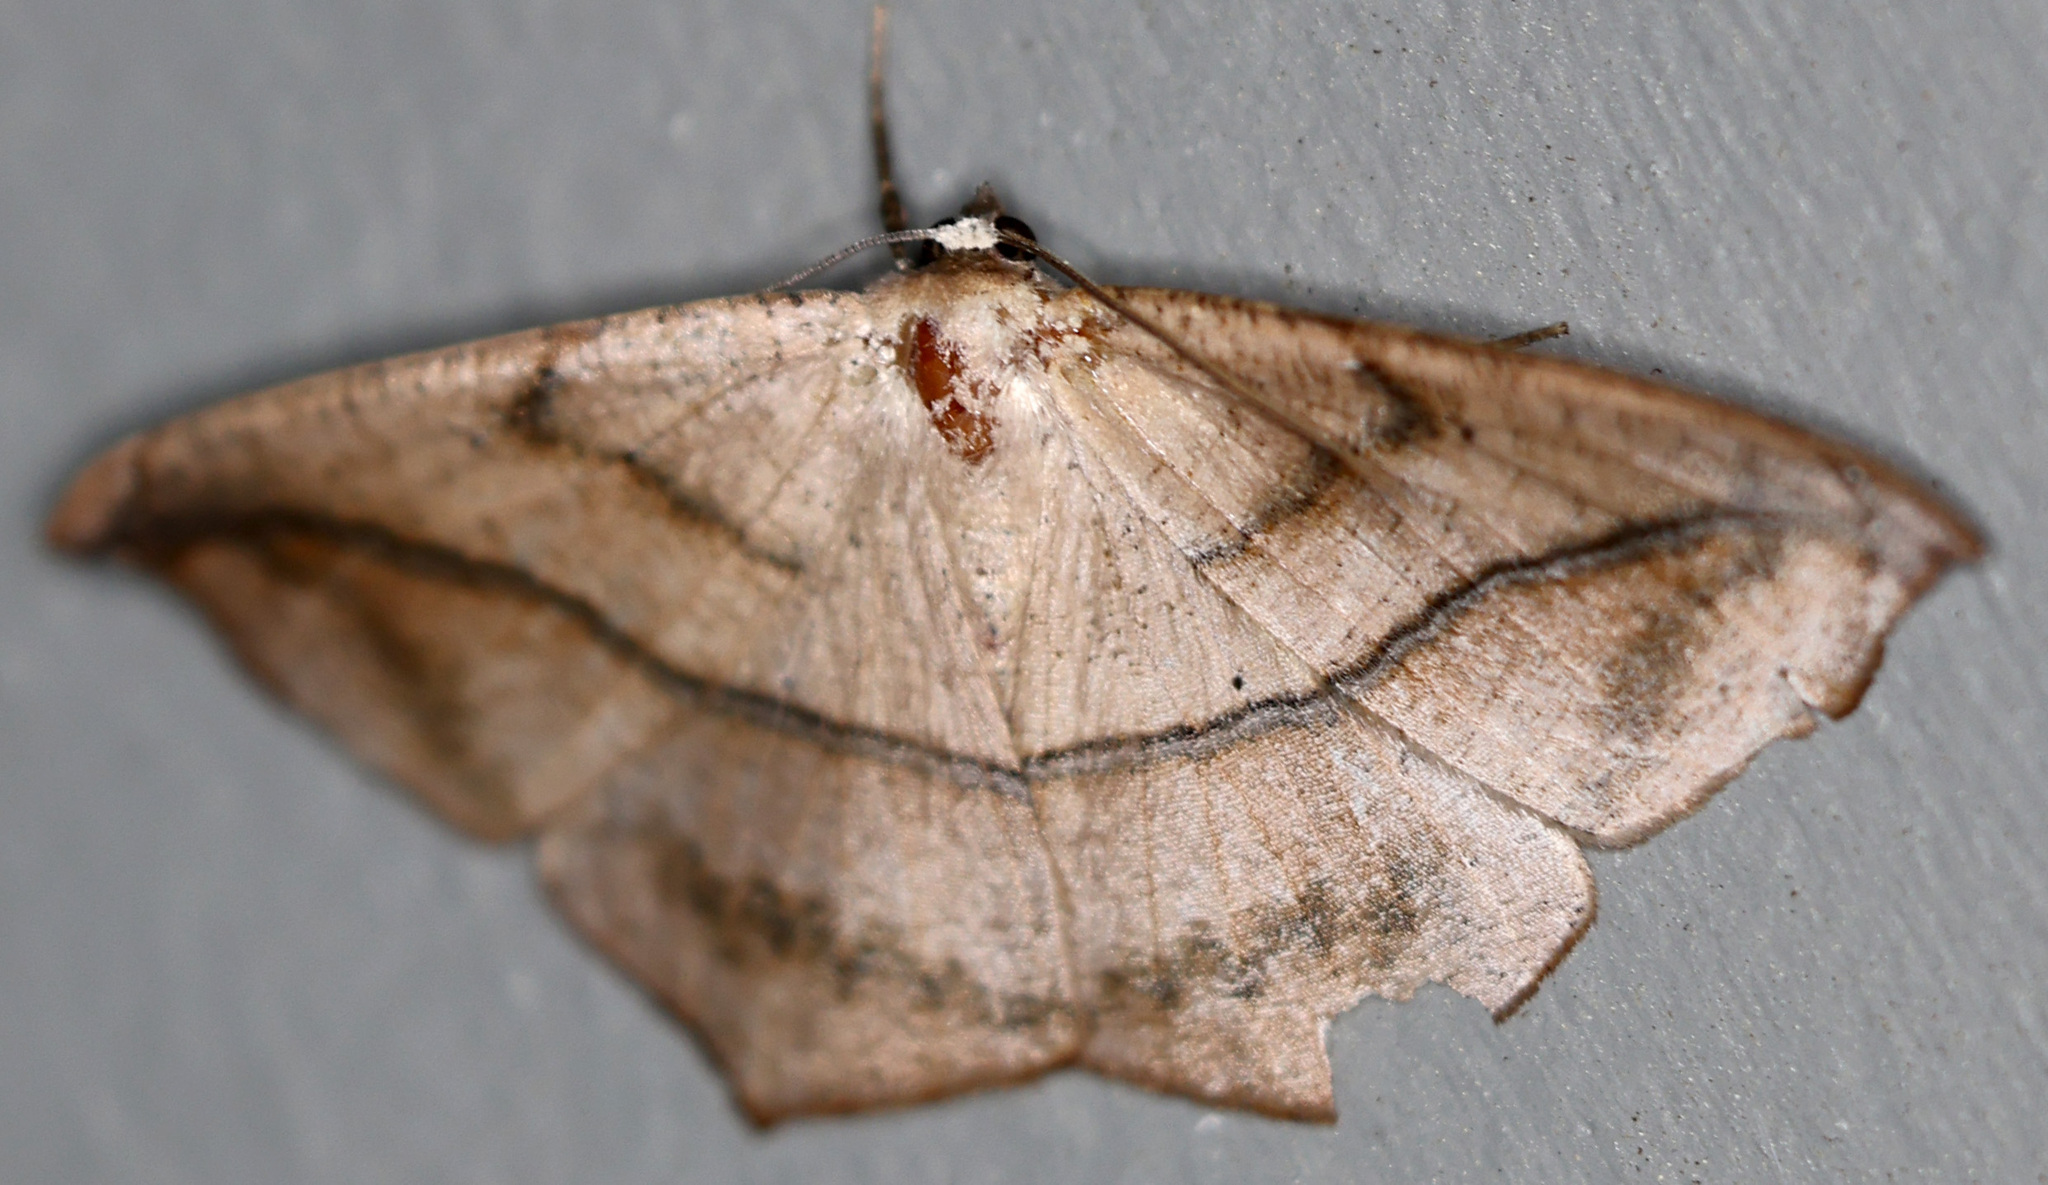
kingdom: Animalia
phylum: Arthropoda
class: Insecta
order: Lepidoptera
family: Geometridae
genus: Prochoerodes
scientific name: Prochoerodes lineola
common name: Large maple spanworm
